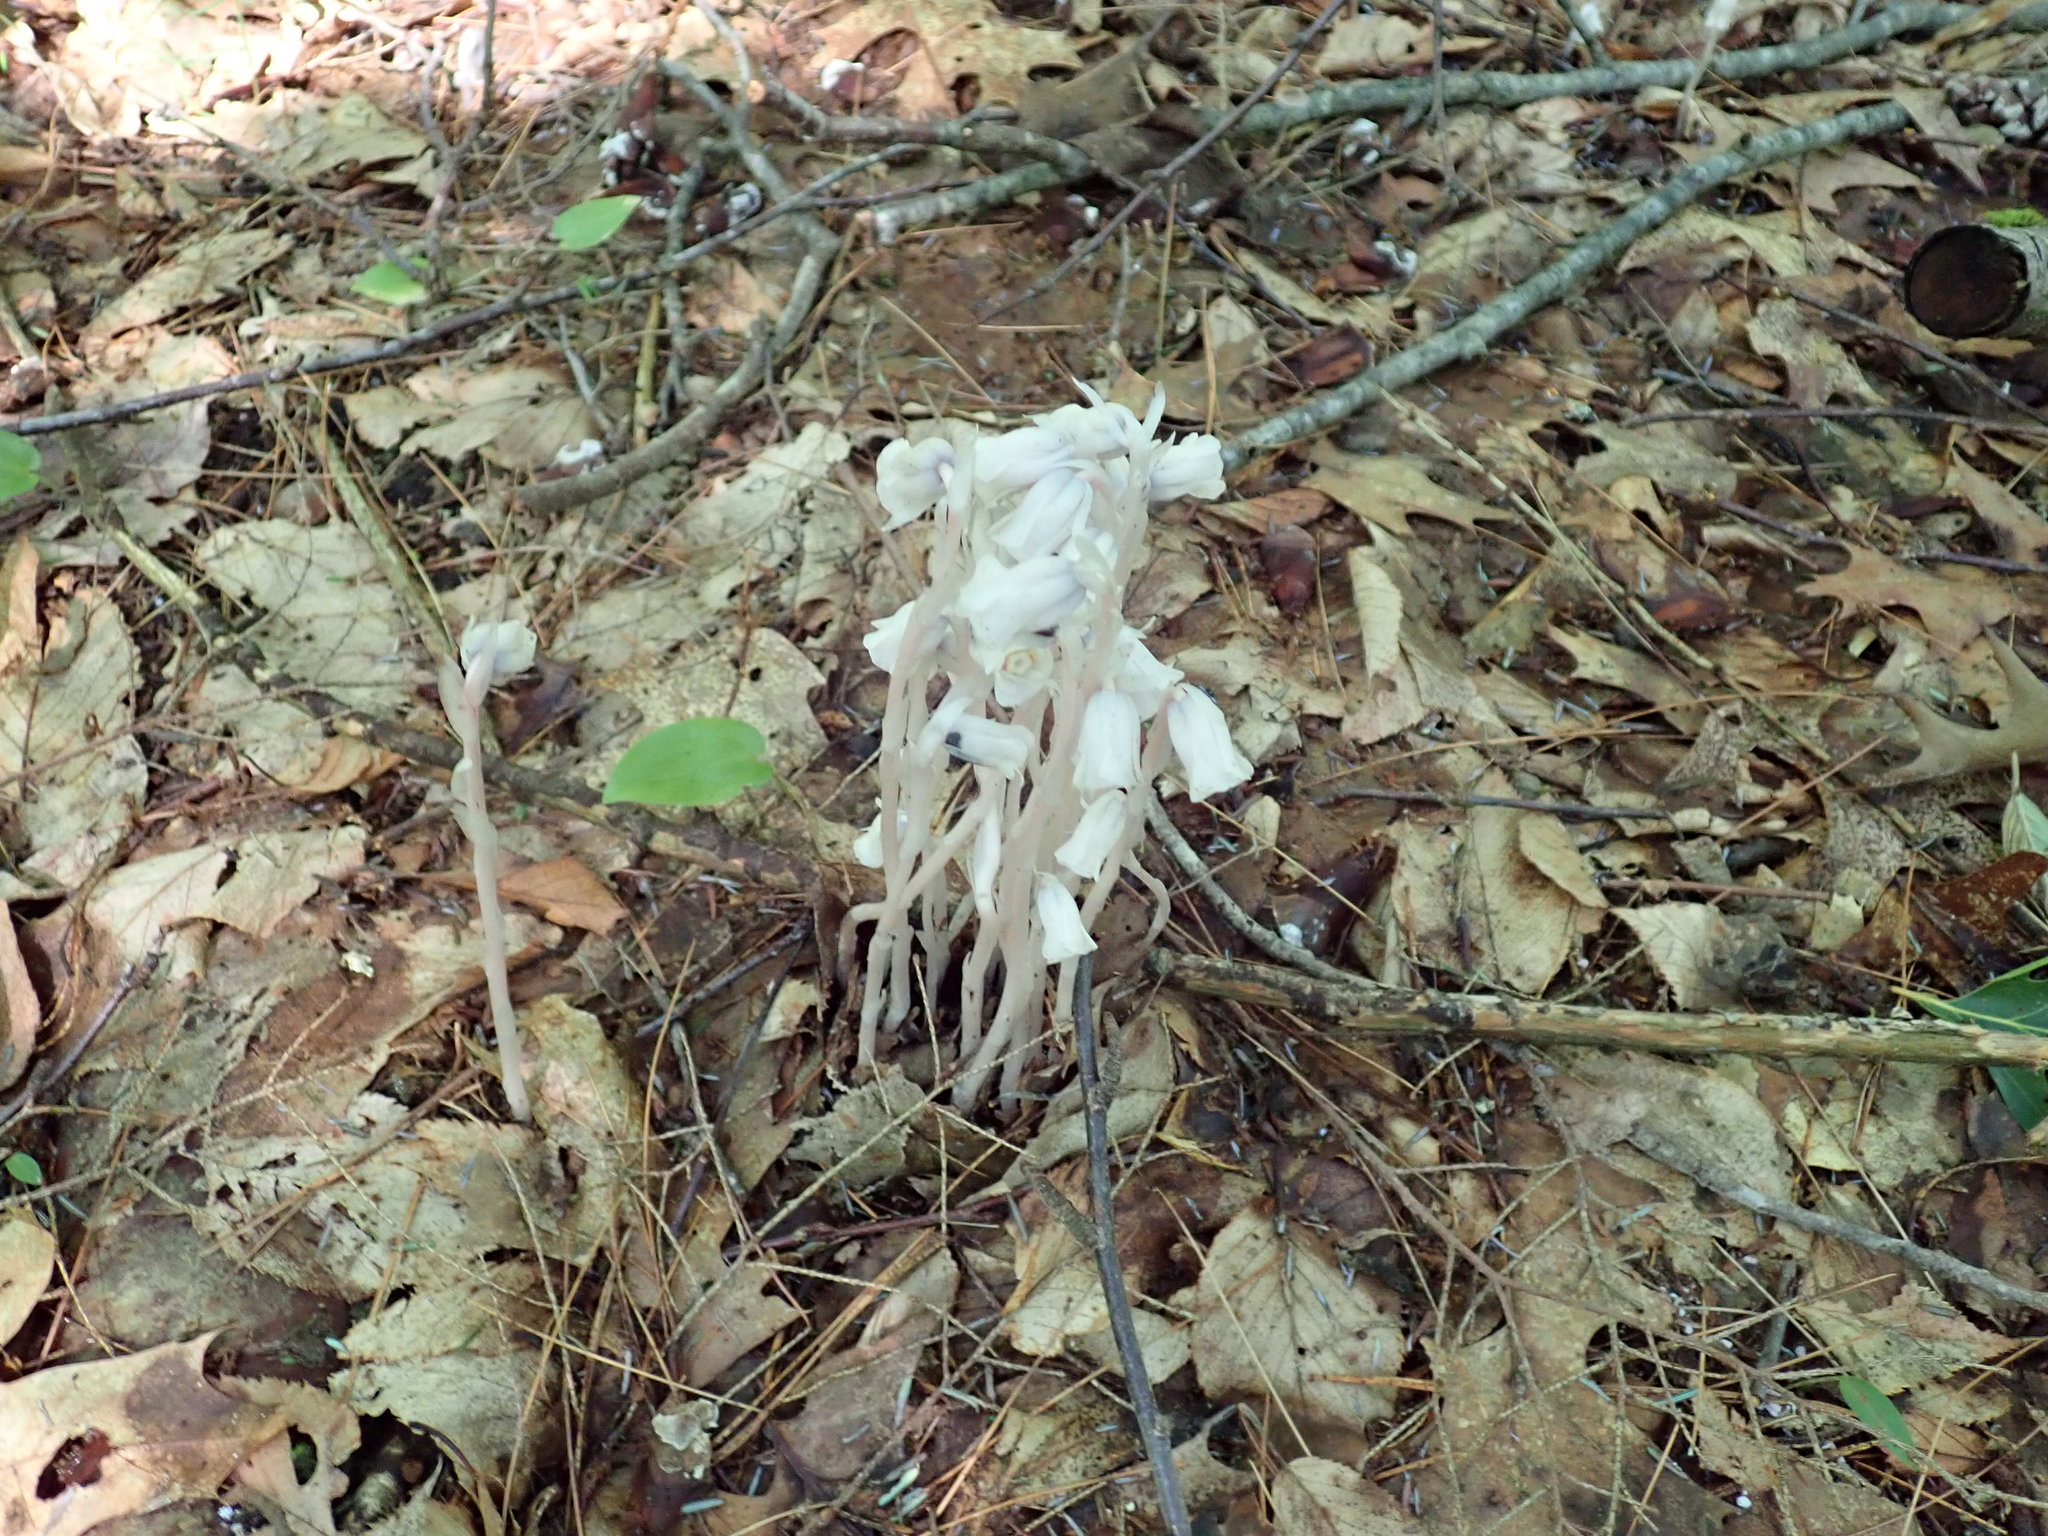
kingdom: Plantae
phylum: Tracheophyta
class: Magnoliopsida
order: Ericales
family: Ericaceae
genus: Monotropa
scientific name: Monotropa uniflora
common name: Convulsion root
